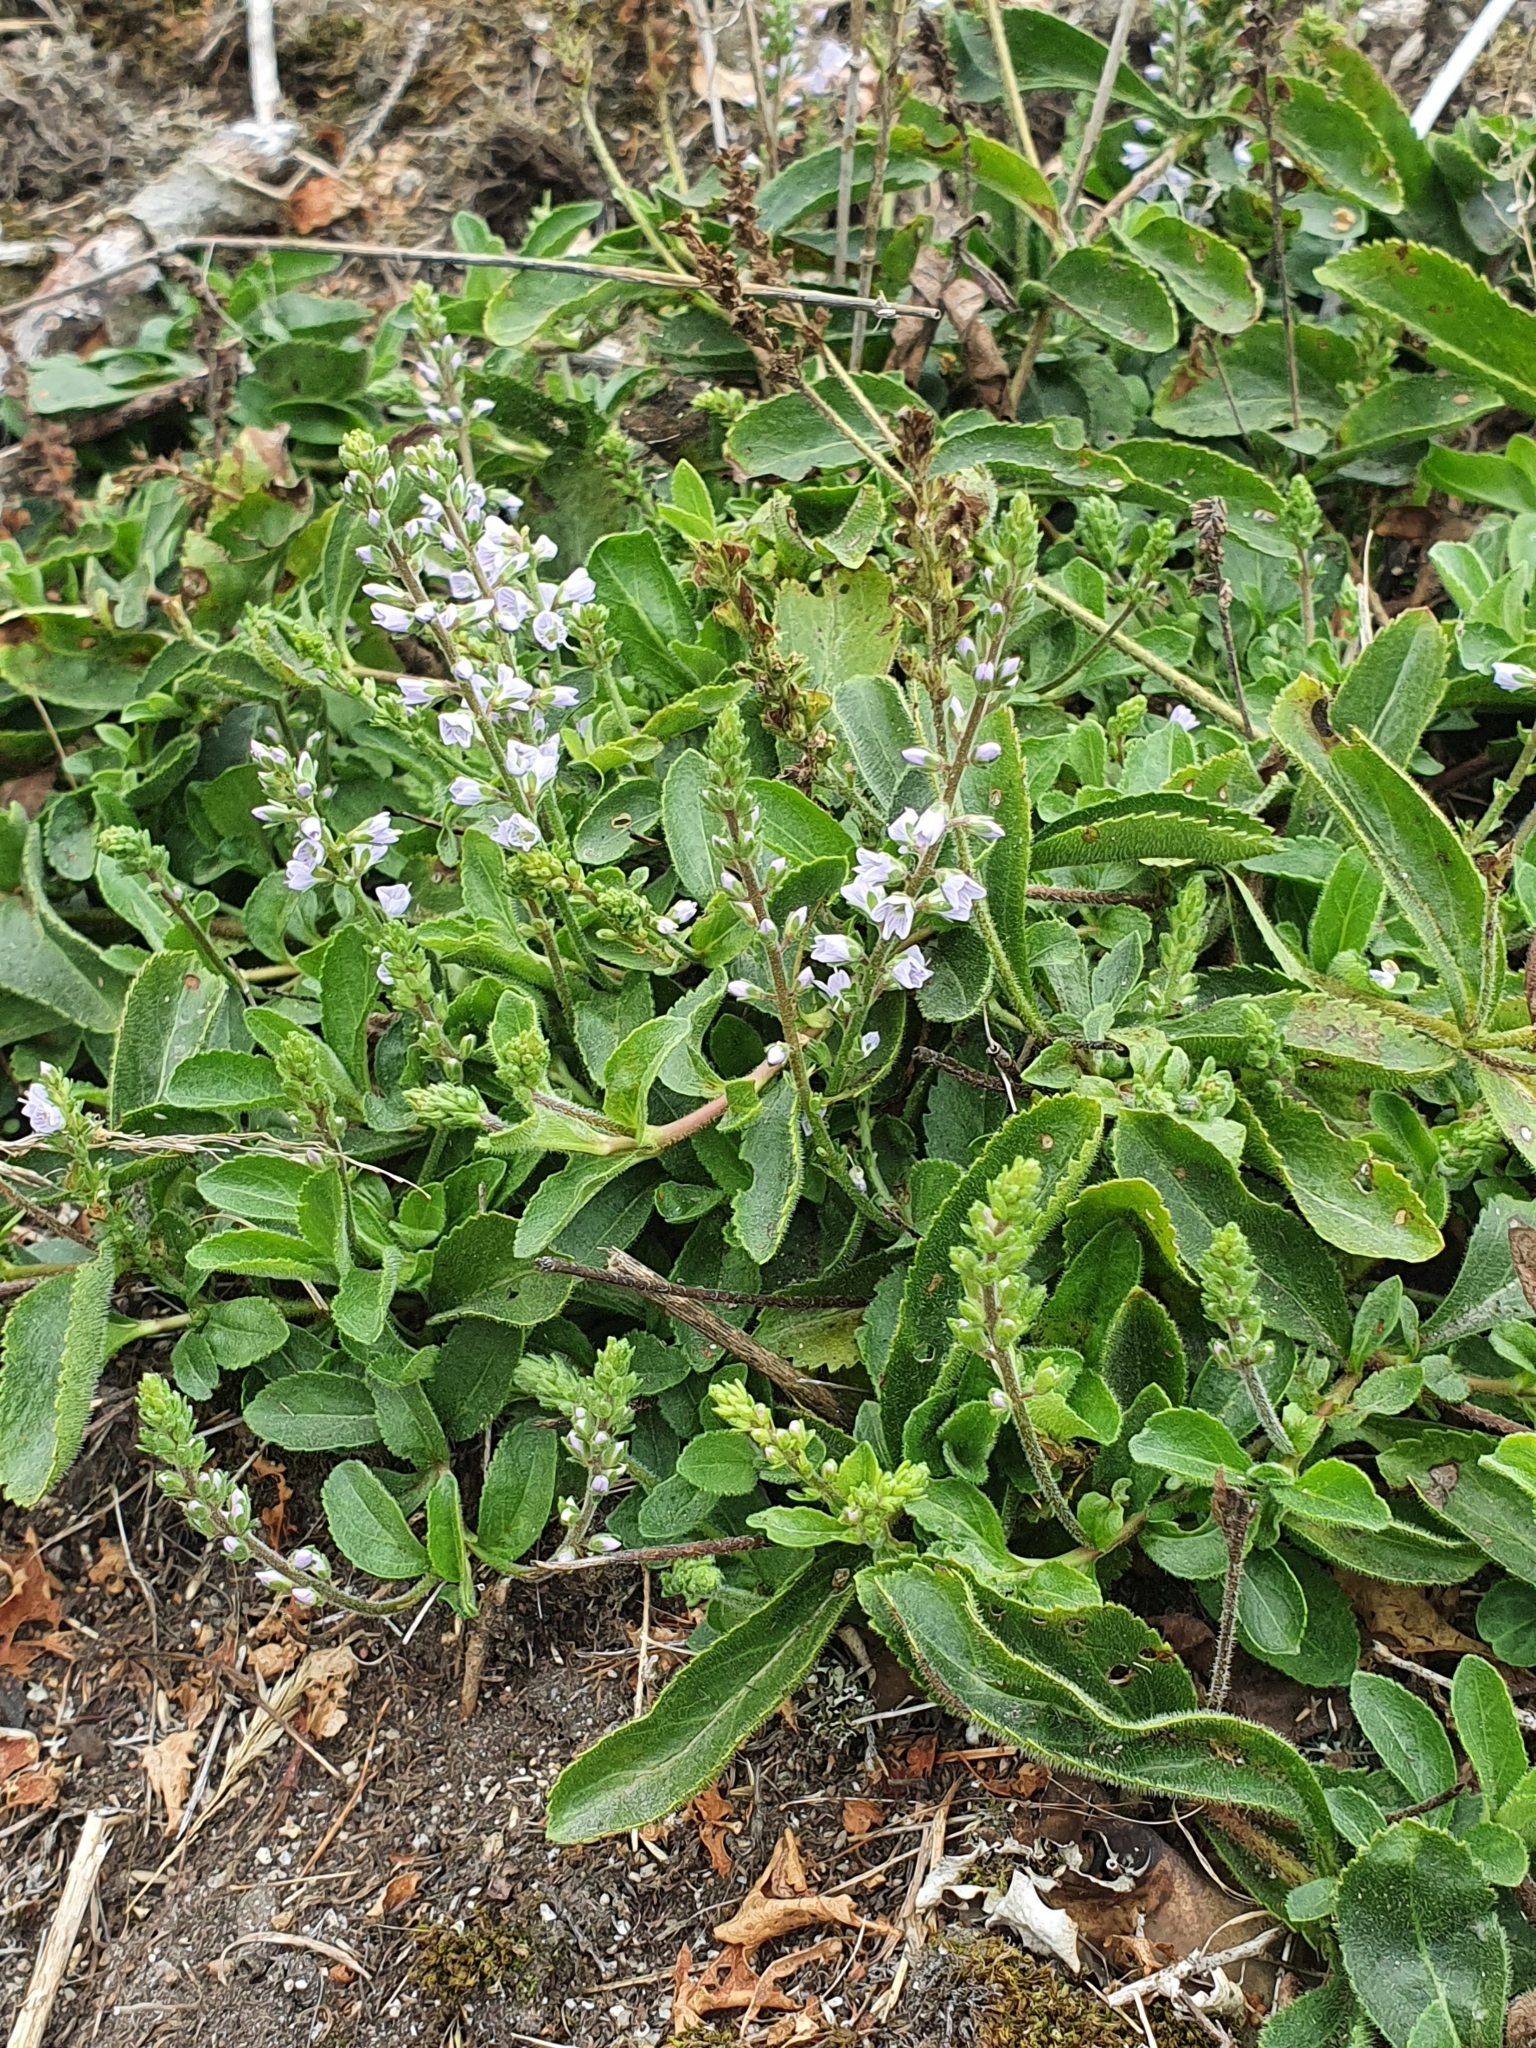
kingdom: Plantae
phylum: Tracheophyta
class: Magnoliopsida
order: Lamiales
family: Plantaginaceae
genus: Veronica
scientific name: Veronica officinalis
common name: Common speedwell
